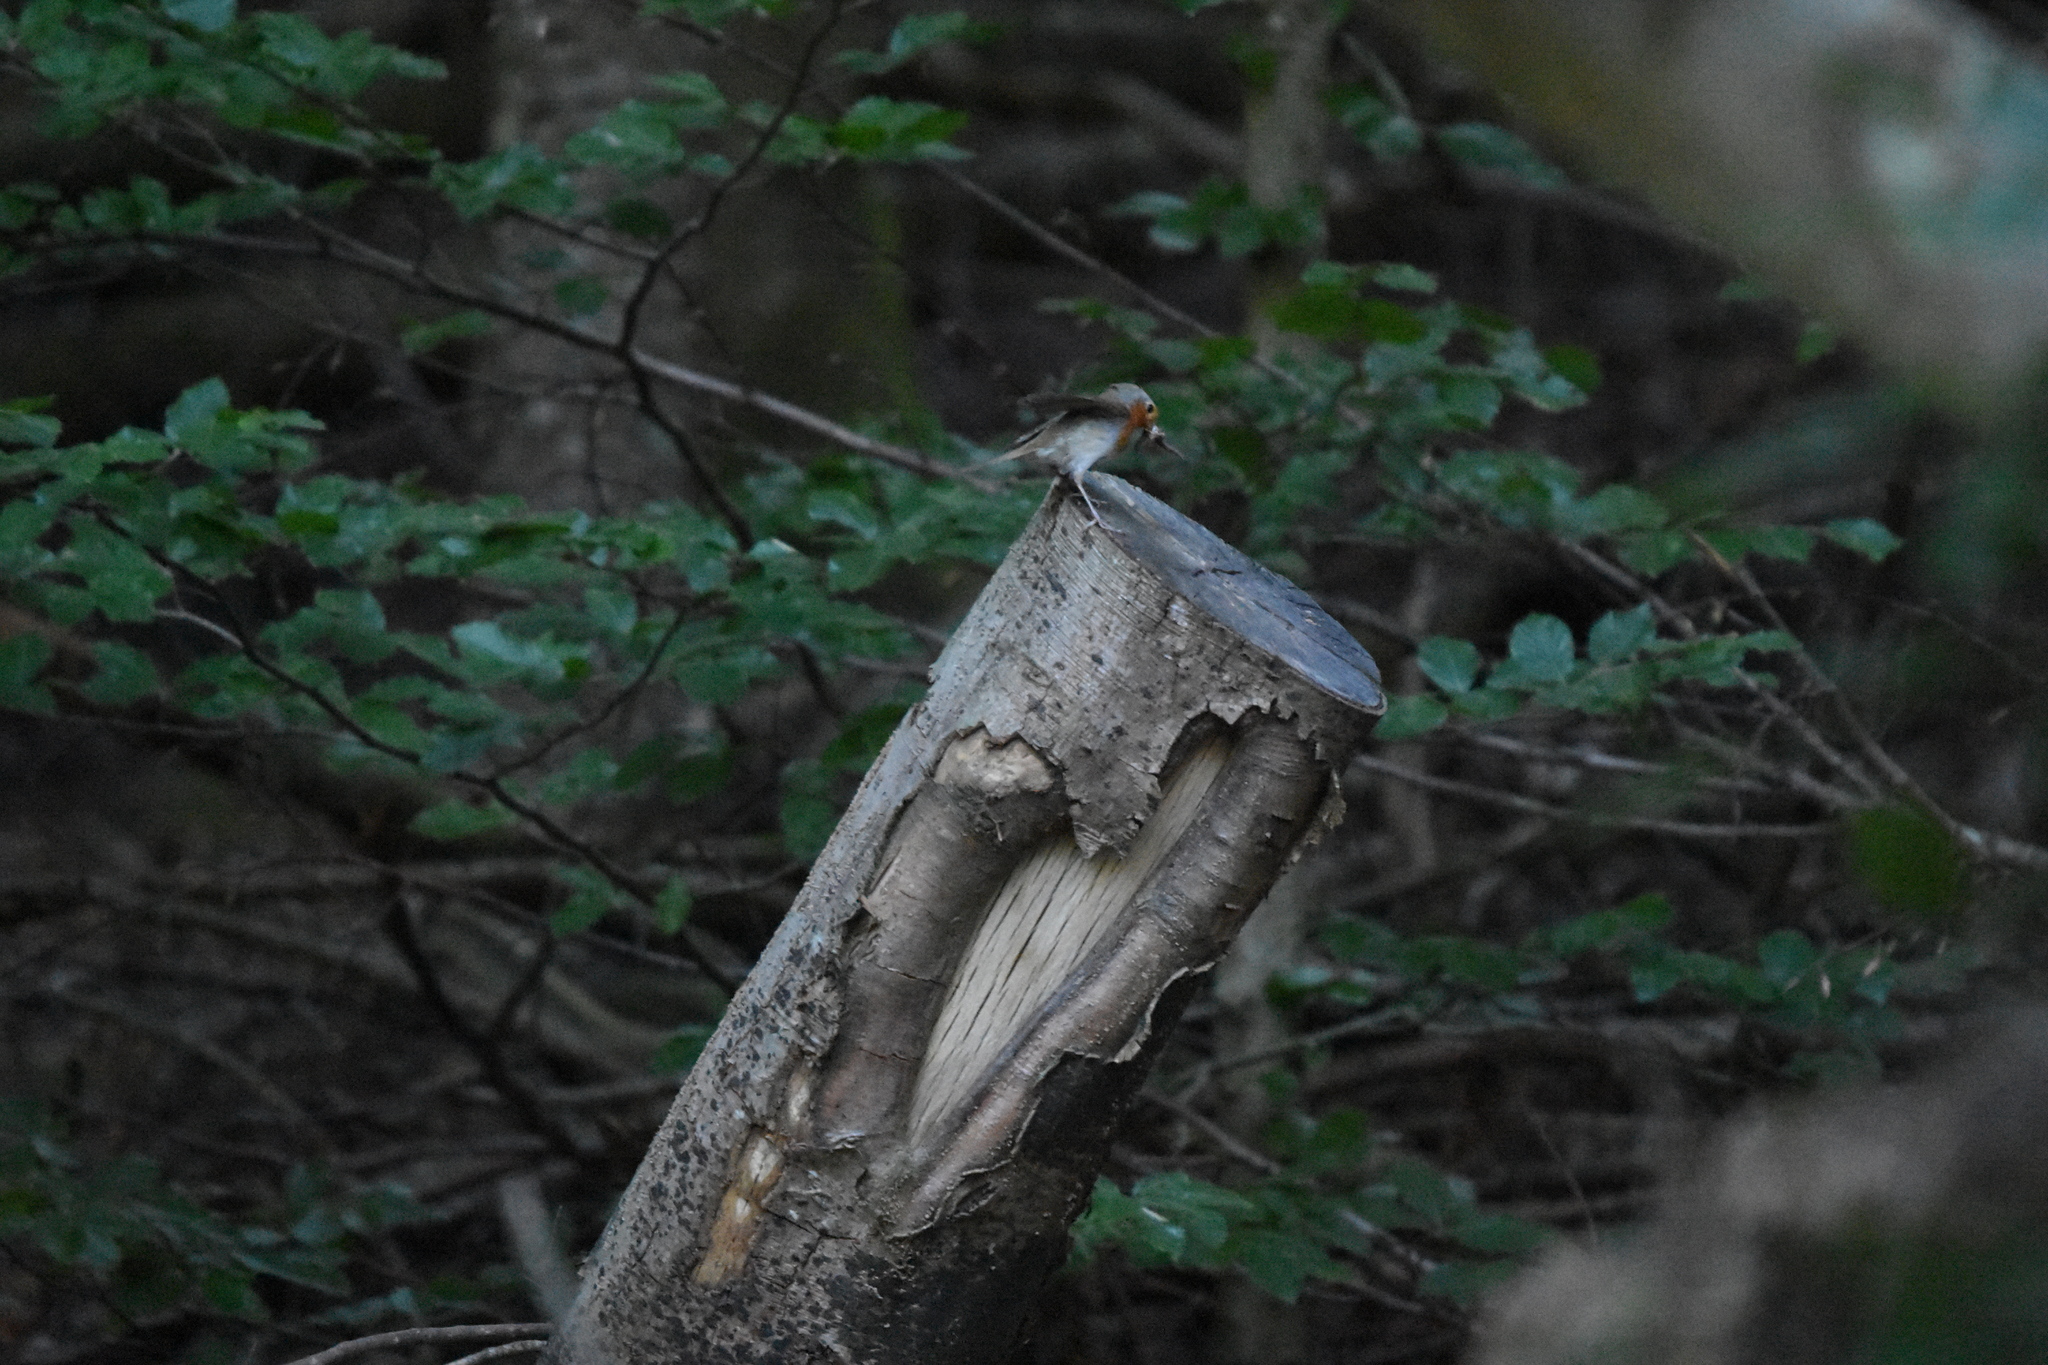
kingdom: Animalia
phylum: Chordata
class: Aves
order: Passeriformes
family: Muscicapidae
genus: Erithacus
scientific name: Erithacus rubecula
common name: European robin
